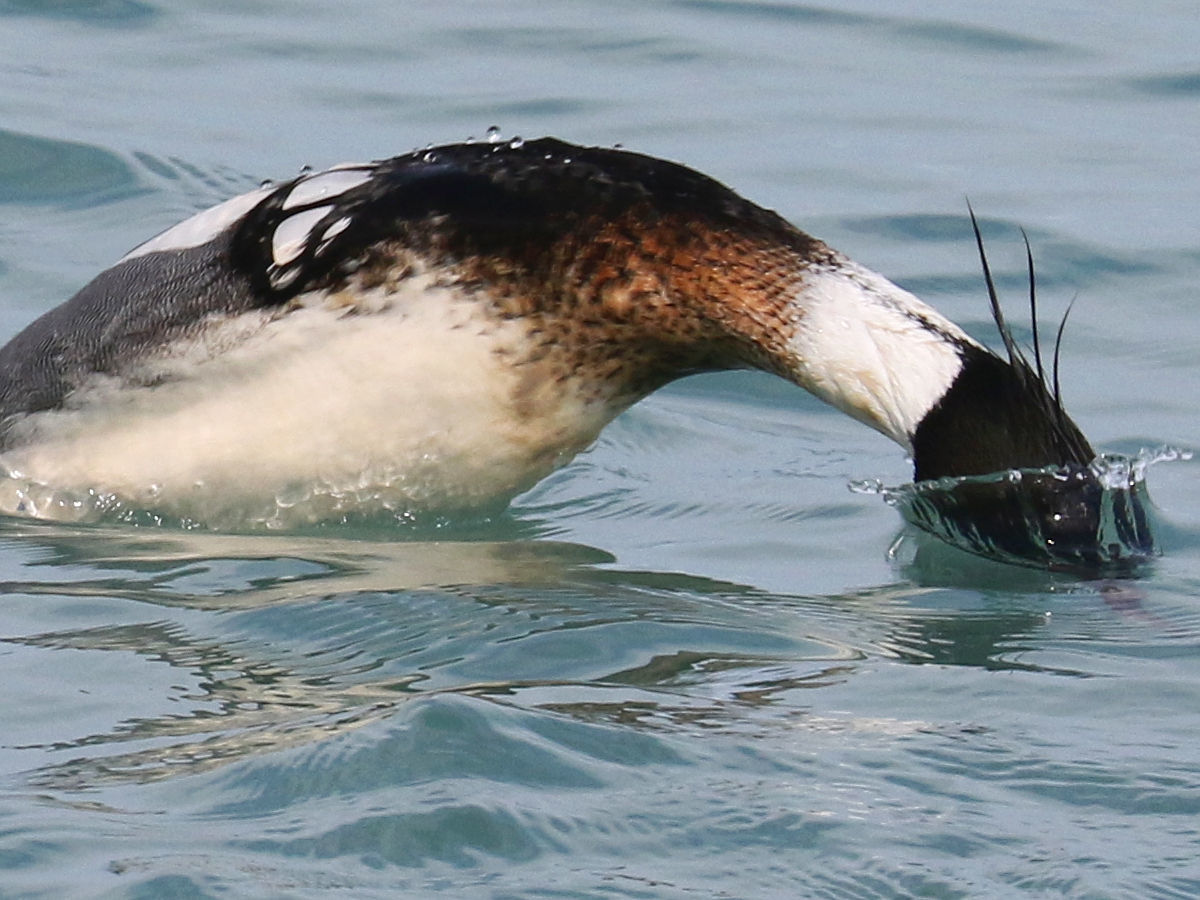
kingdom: Animalia
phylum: Chordata
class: Aves
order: Anseriformes
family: Anatidae
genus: Mergus
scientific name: Mergus serrator
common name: Red-breasted merganser
